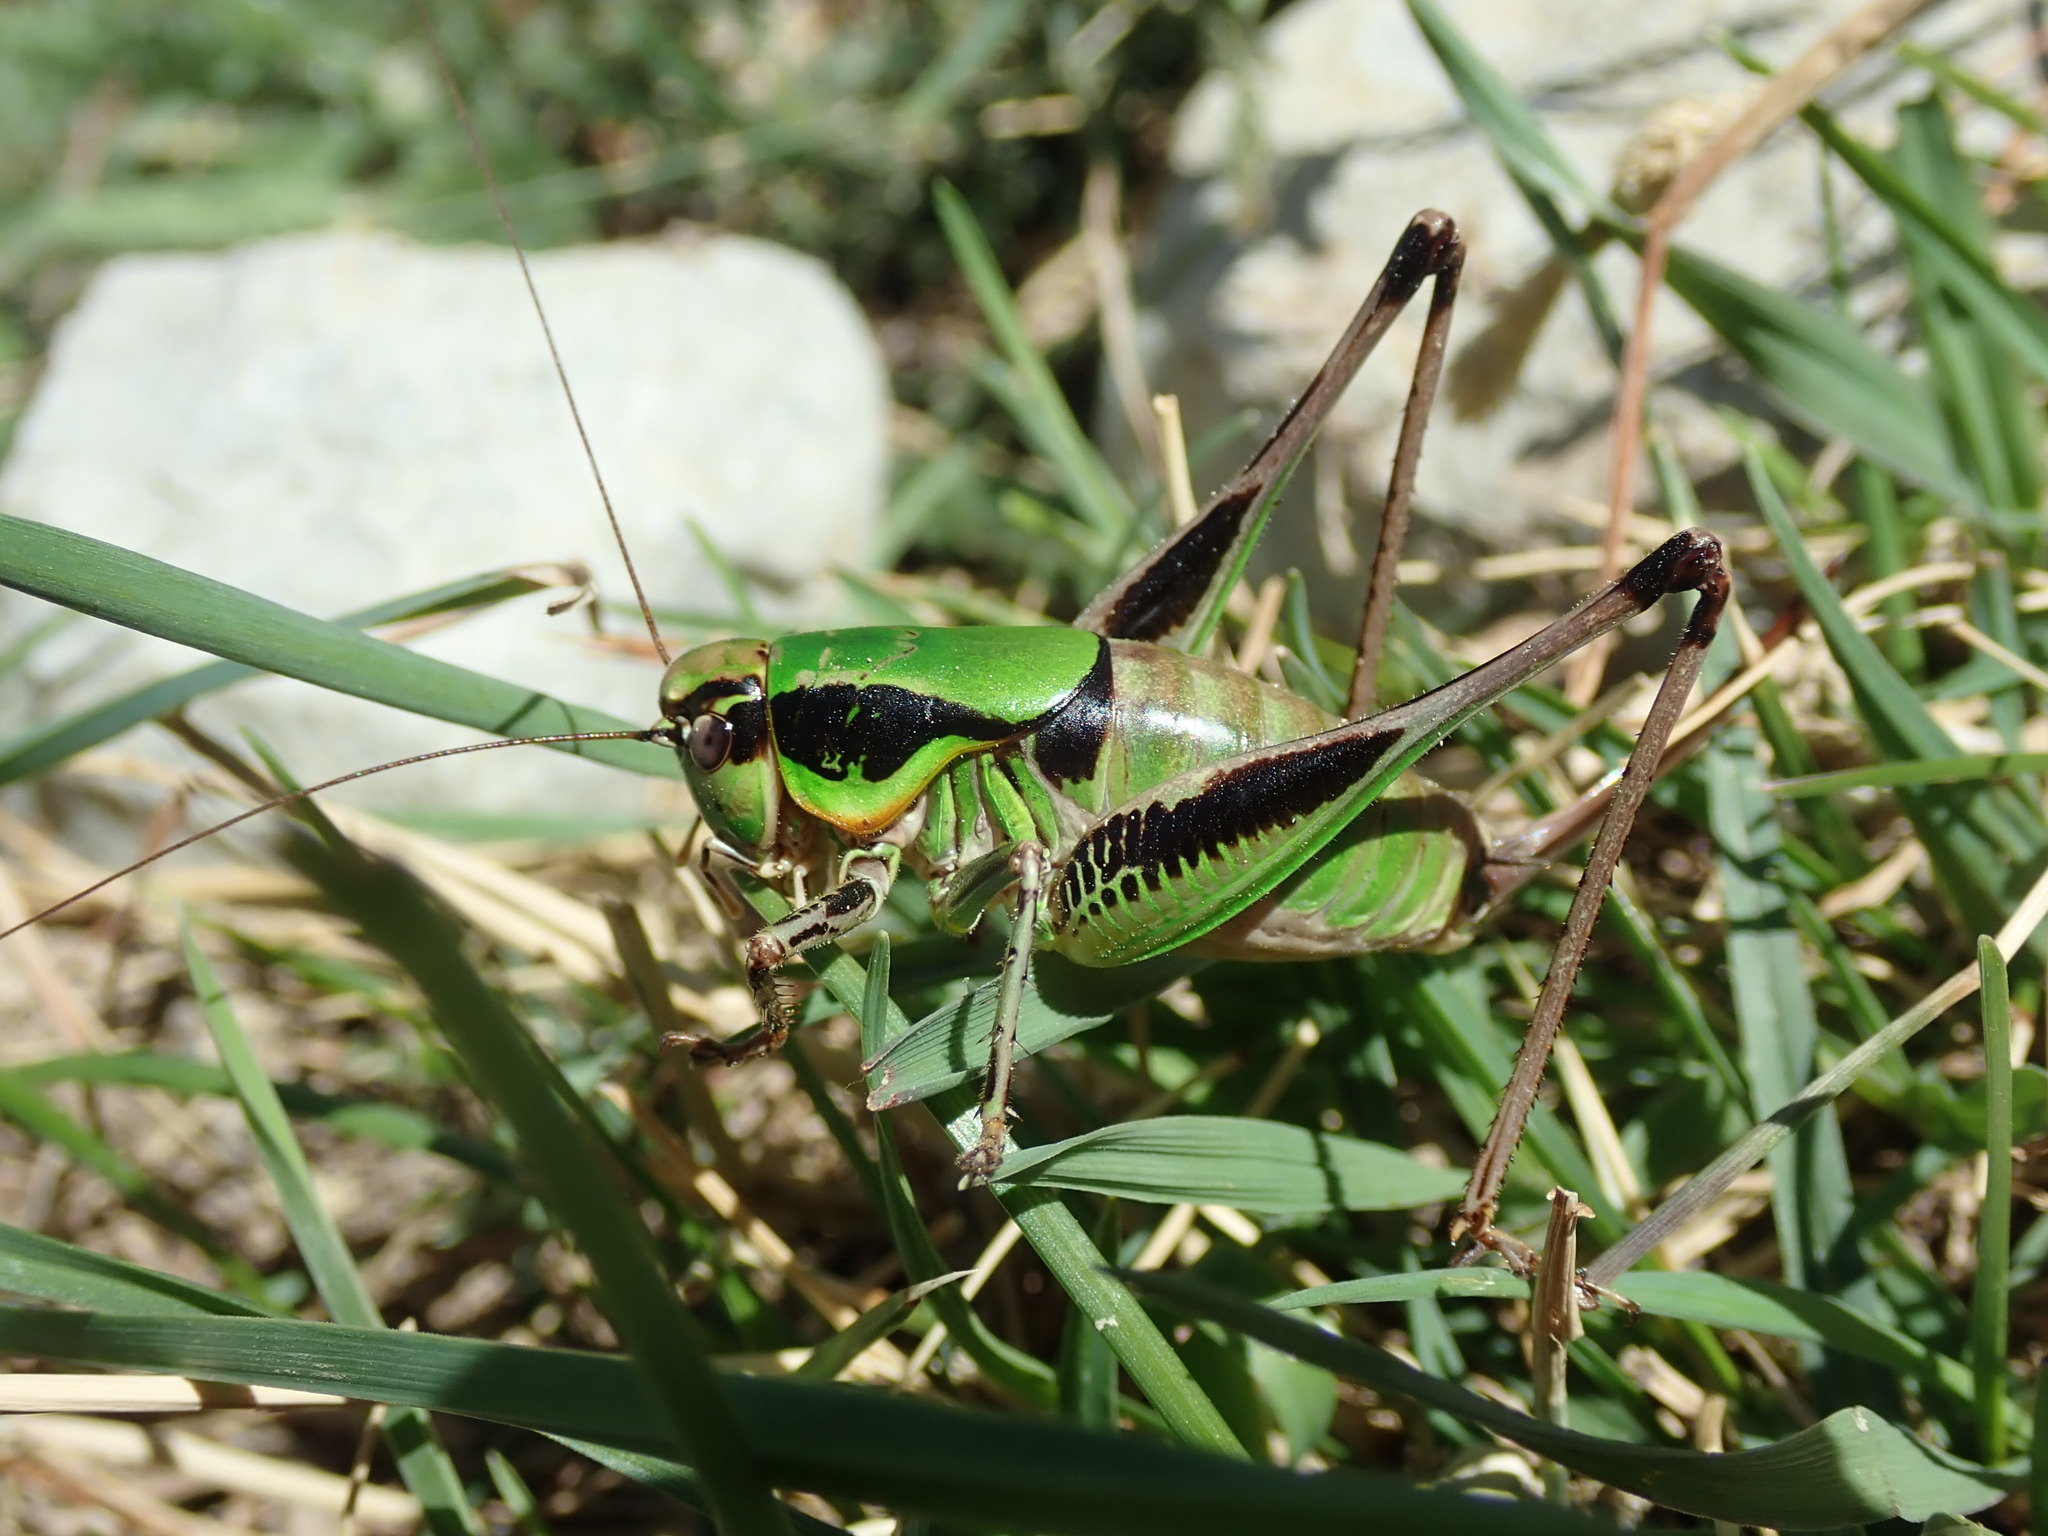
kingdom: Animalia
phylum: Arthropoda
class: Insecta
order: Orthoptera
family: Tettigoniidae
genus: Eupholidoptera
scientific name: Eupholidoptera chabrieri
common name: Chabrier's marbled bush-cricket
